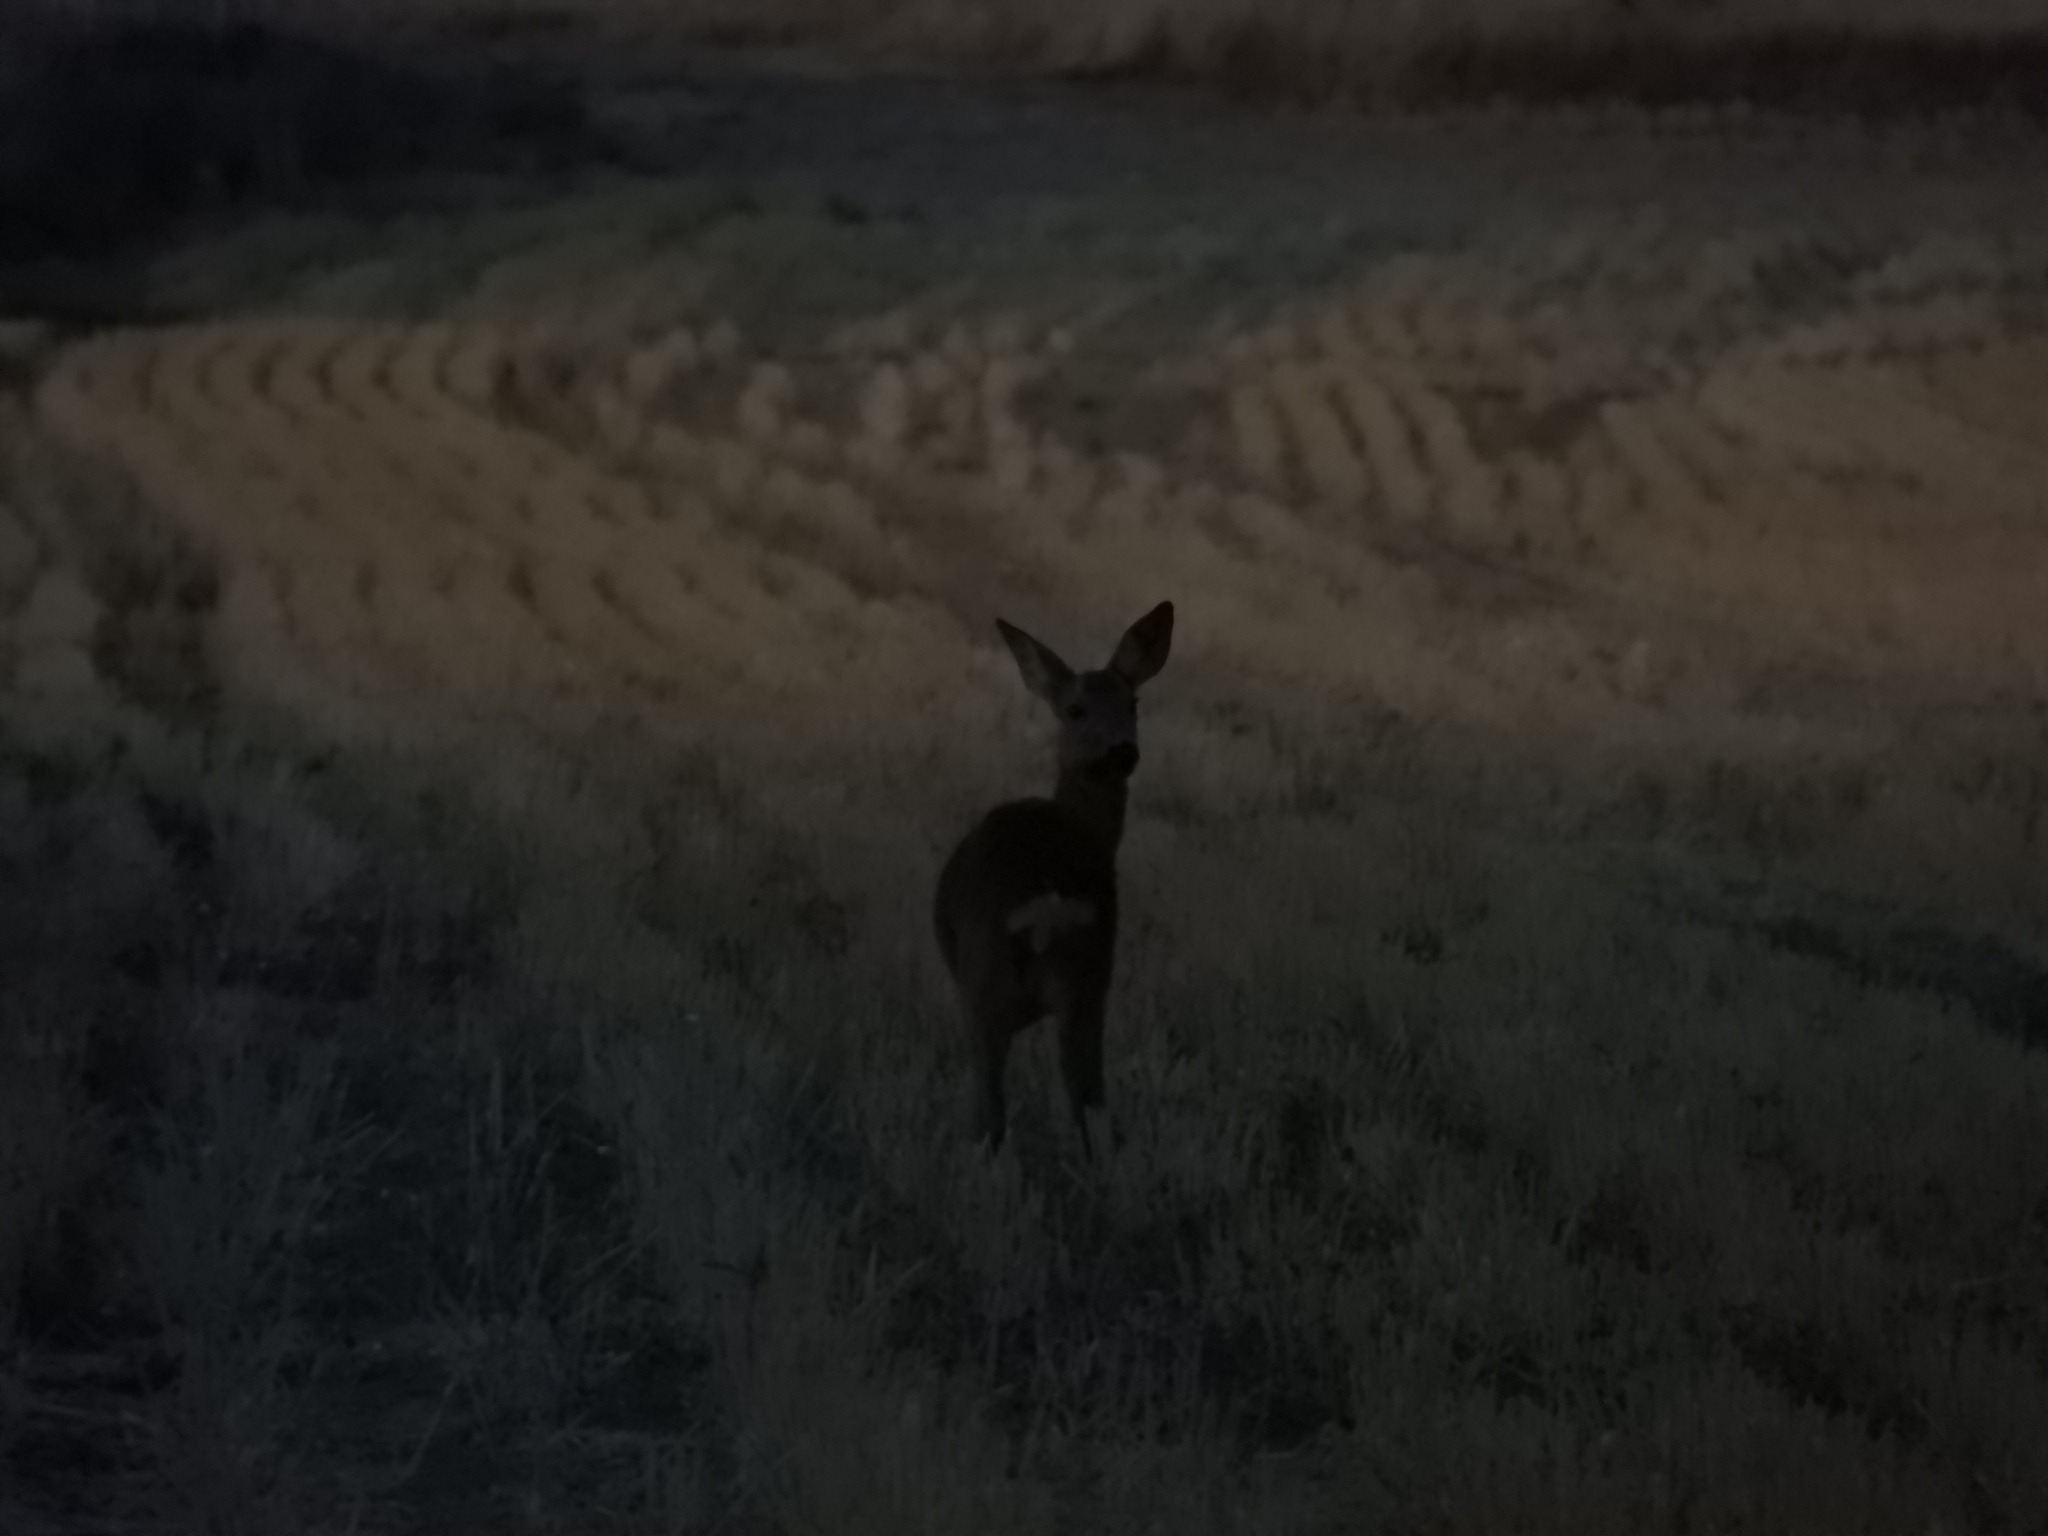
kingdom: Animalia
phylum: Chordata
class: Mammalia
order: Artiodactyla
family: Cervidae
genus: Capreolus
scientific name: Capreolus capreolus
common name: Western roe deer
